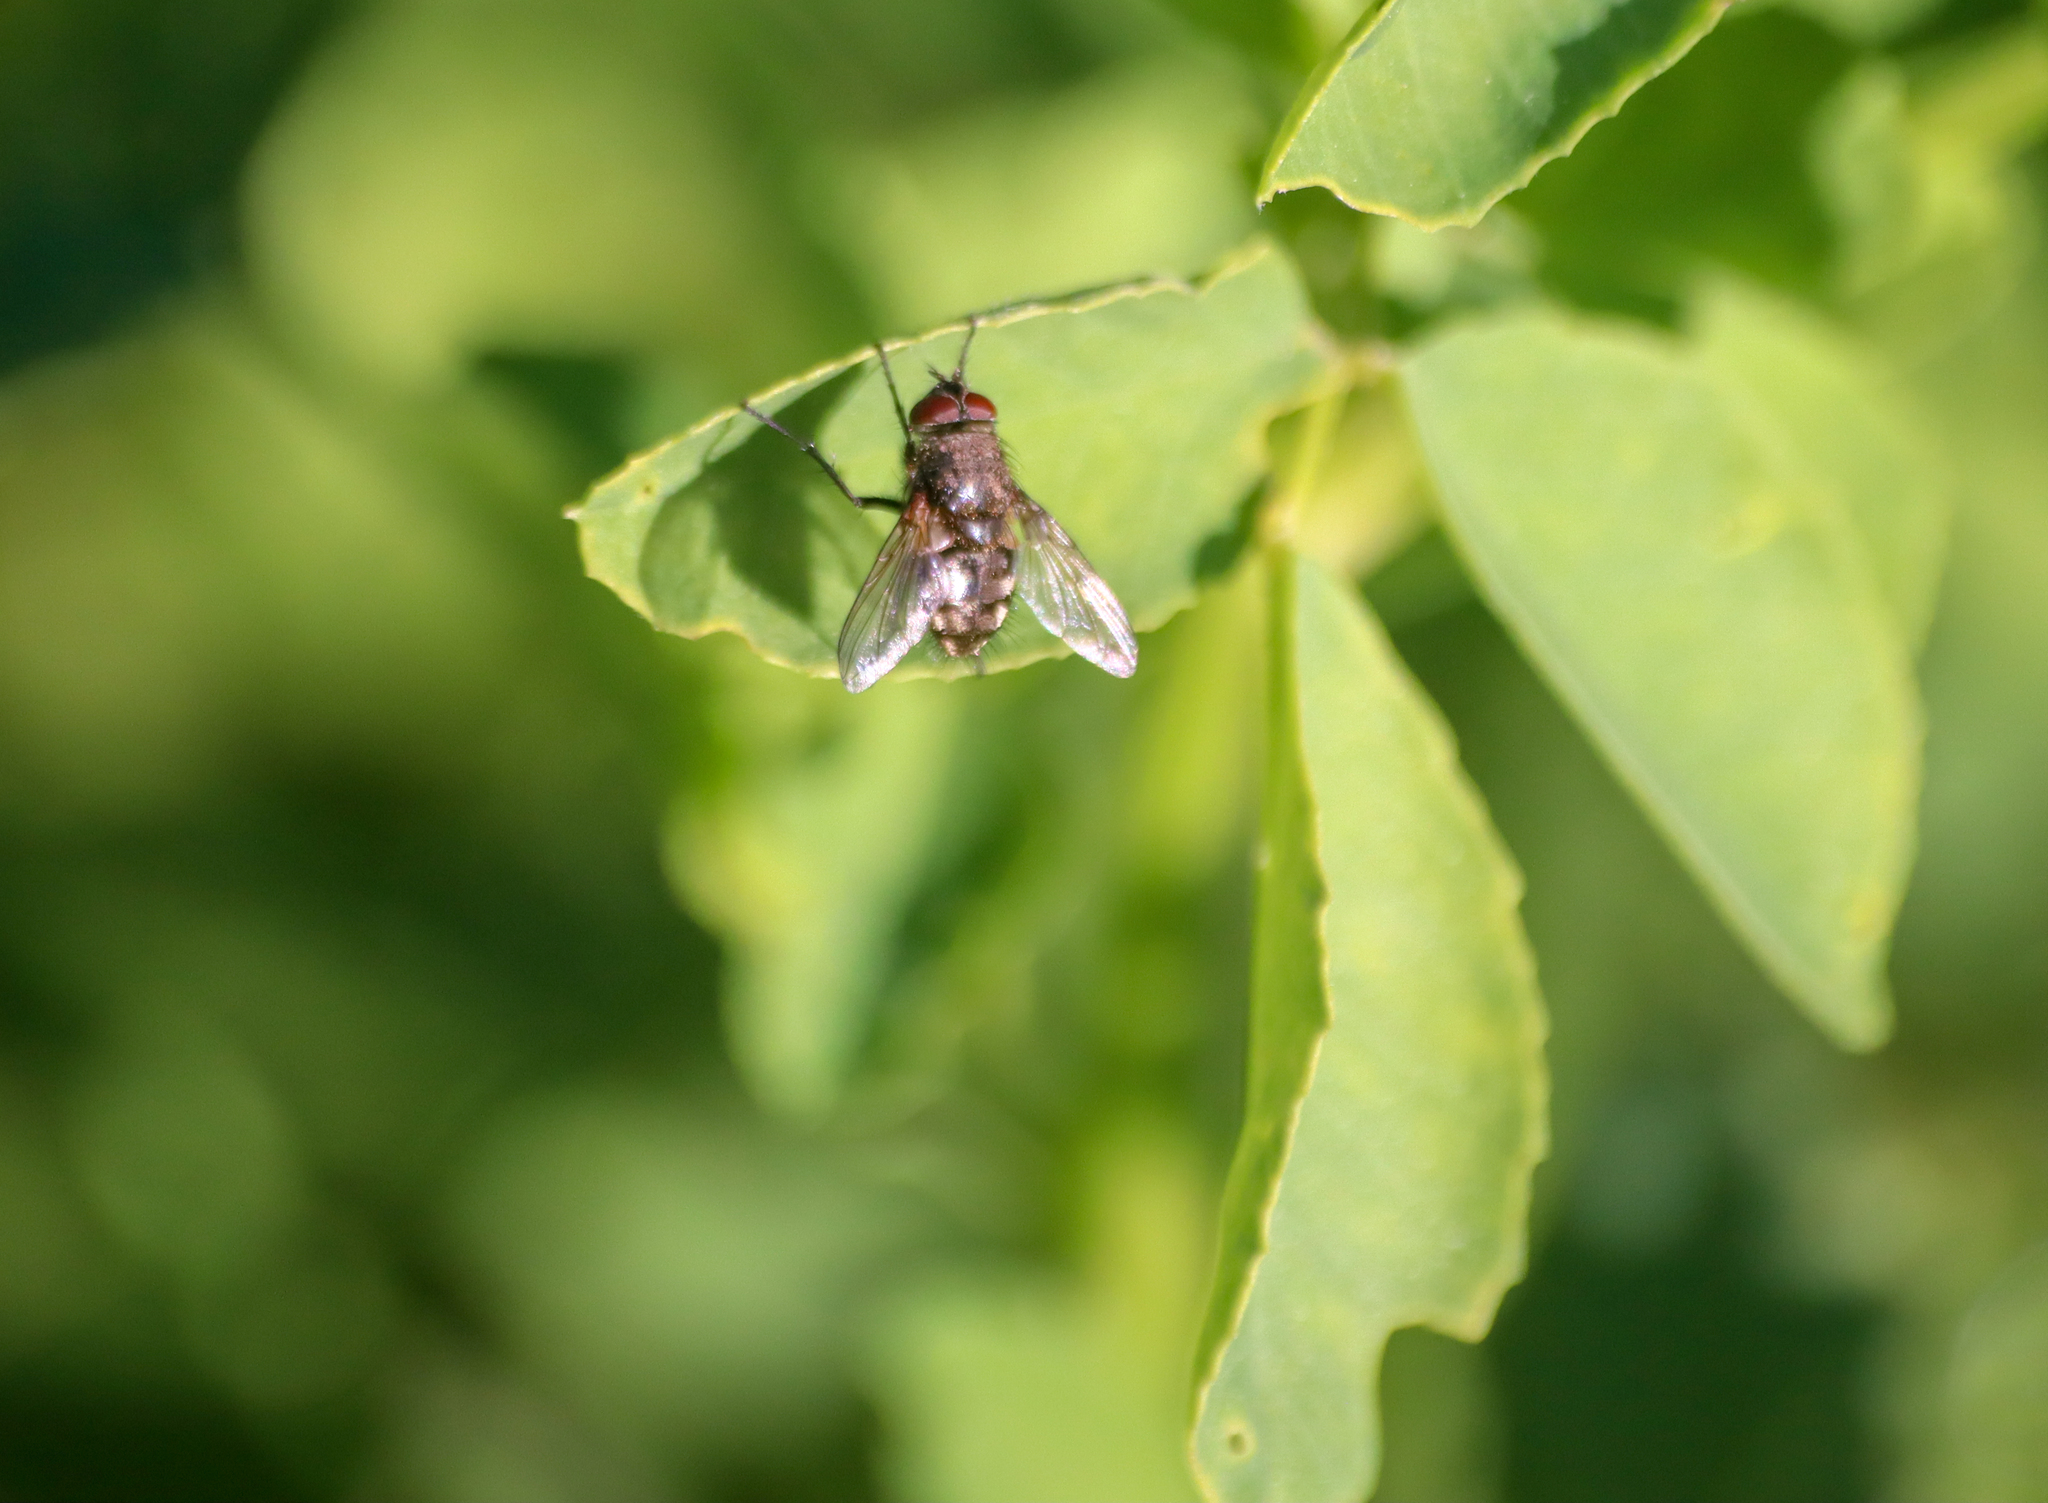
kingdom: Animalia
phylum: Arthropoda
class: Insecta
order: Diptera
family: Polleniidae
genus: Pollenia
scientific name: Pollenia
